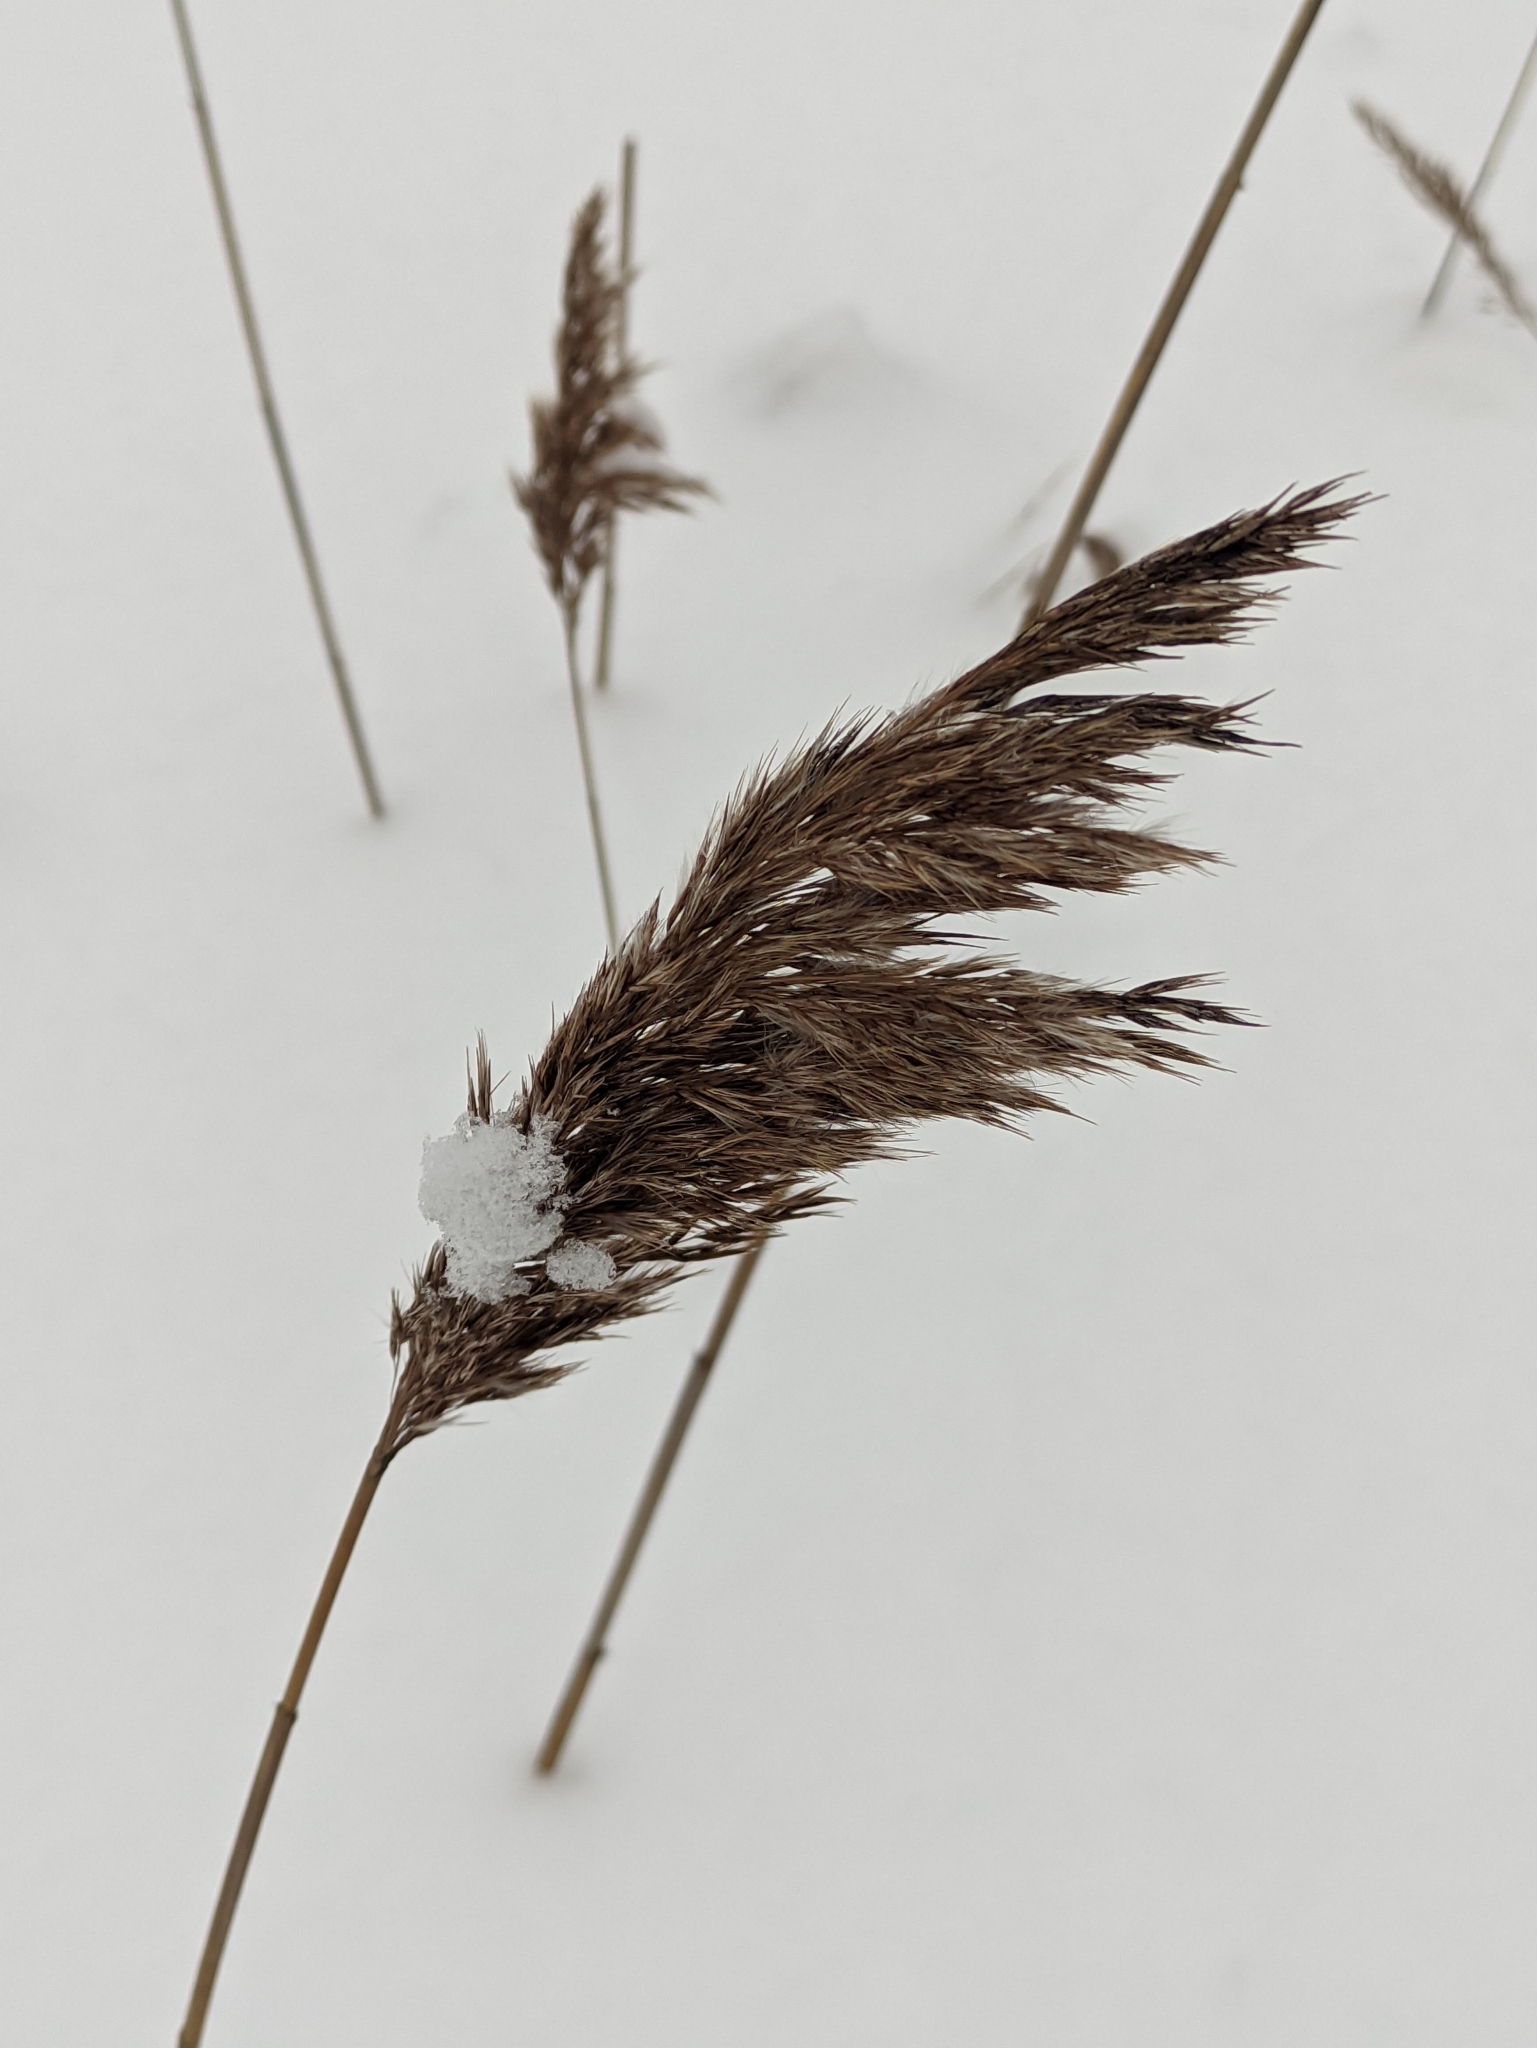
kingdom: Plantae
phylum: Tracheophyta
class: Liliopsida
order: Poales
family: Poaceae
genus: Phragmites
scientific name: Phragmites australis
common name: Common reed
